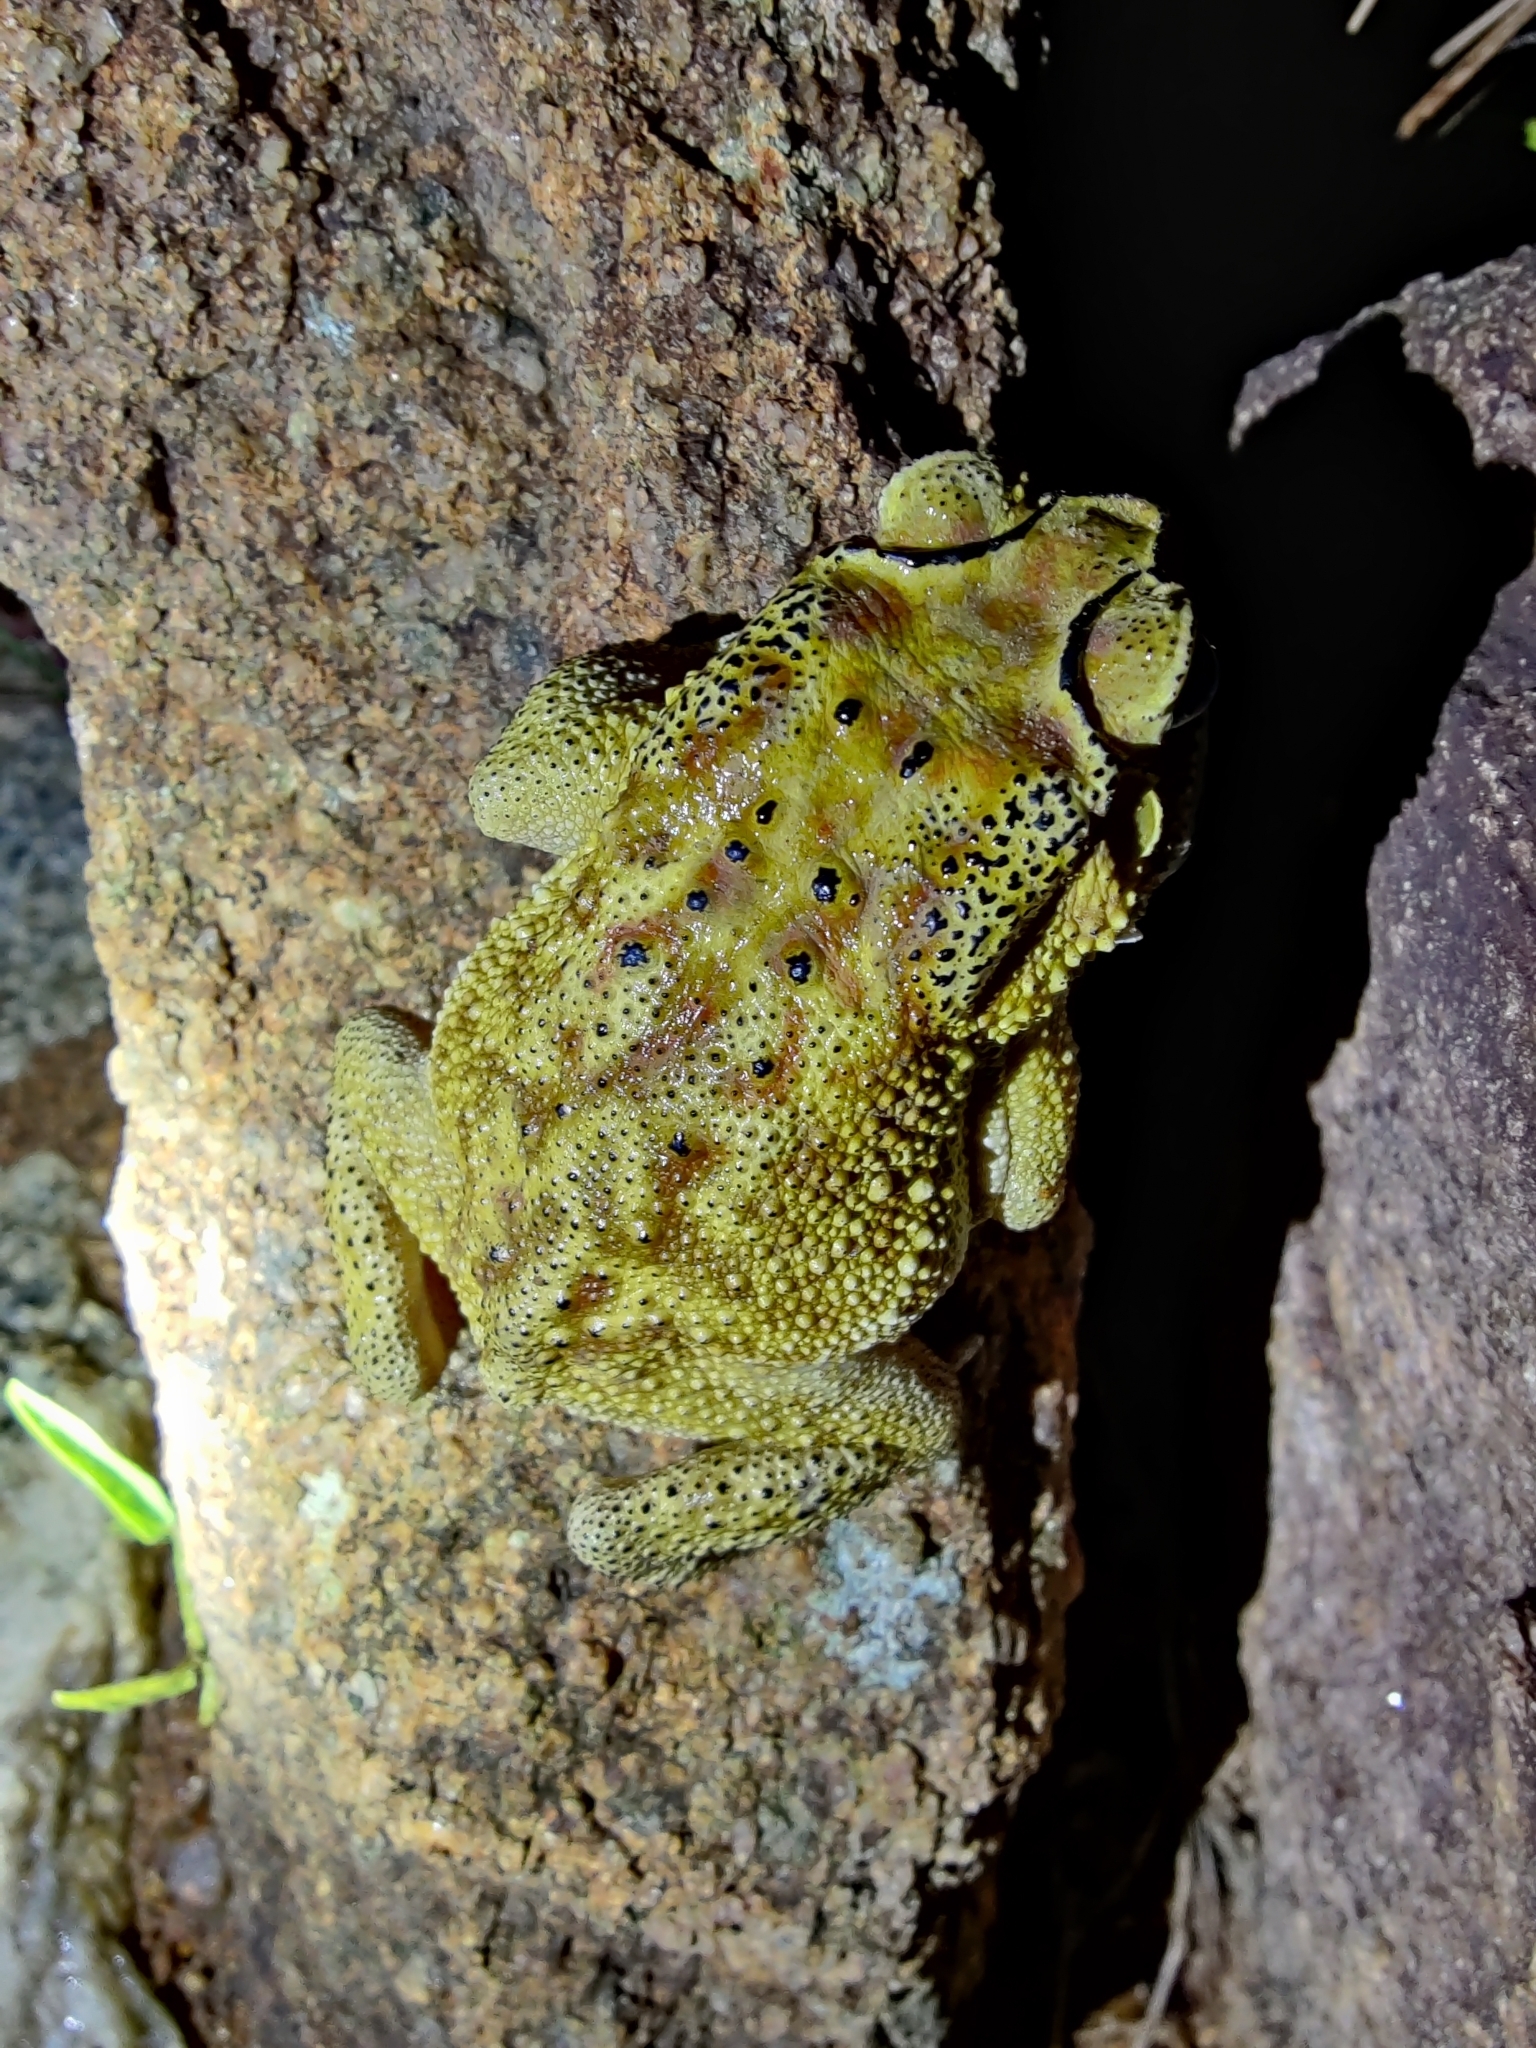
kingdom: Animalia
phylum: Chordata
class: Amphibia
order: Anura
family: Bufonidae
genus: Duttaphrynus
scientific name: Duttaphrynus melanostictus
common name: Common sunda toad
